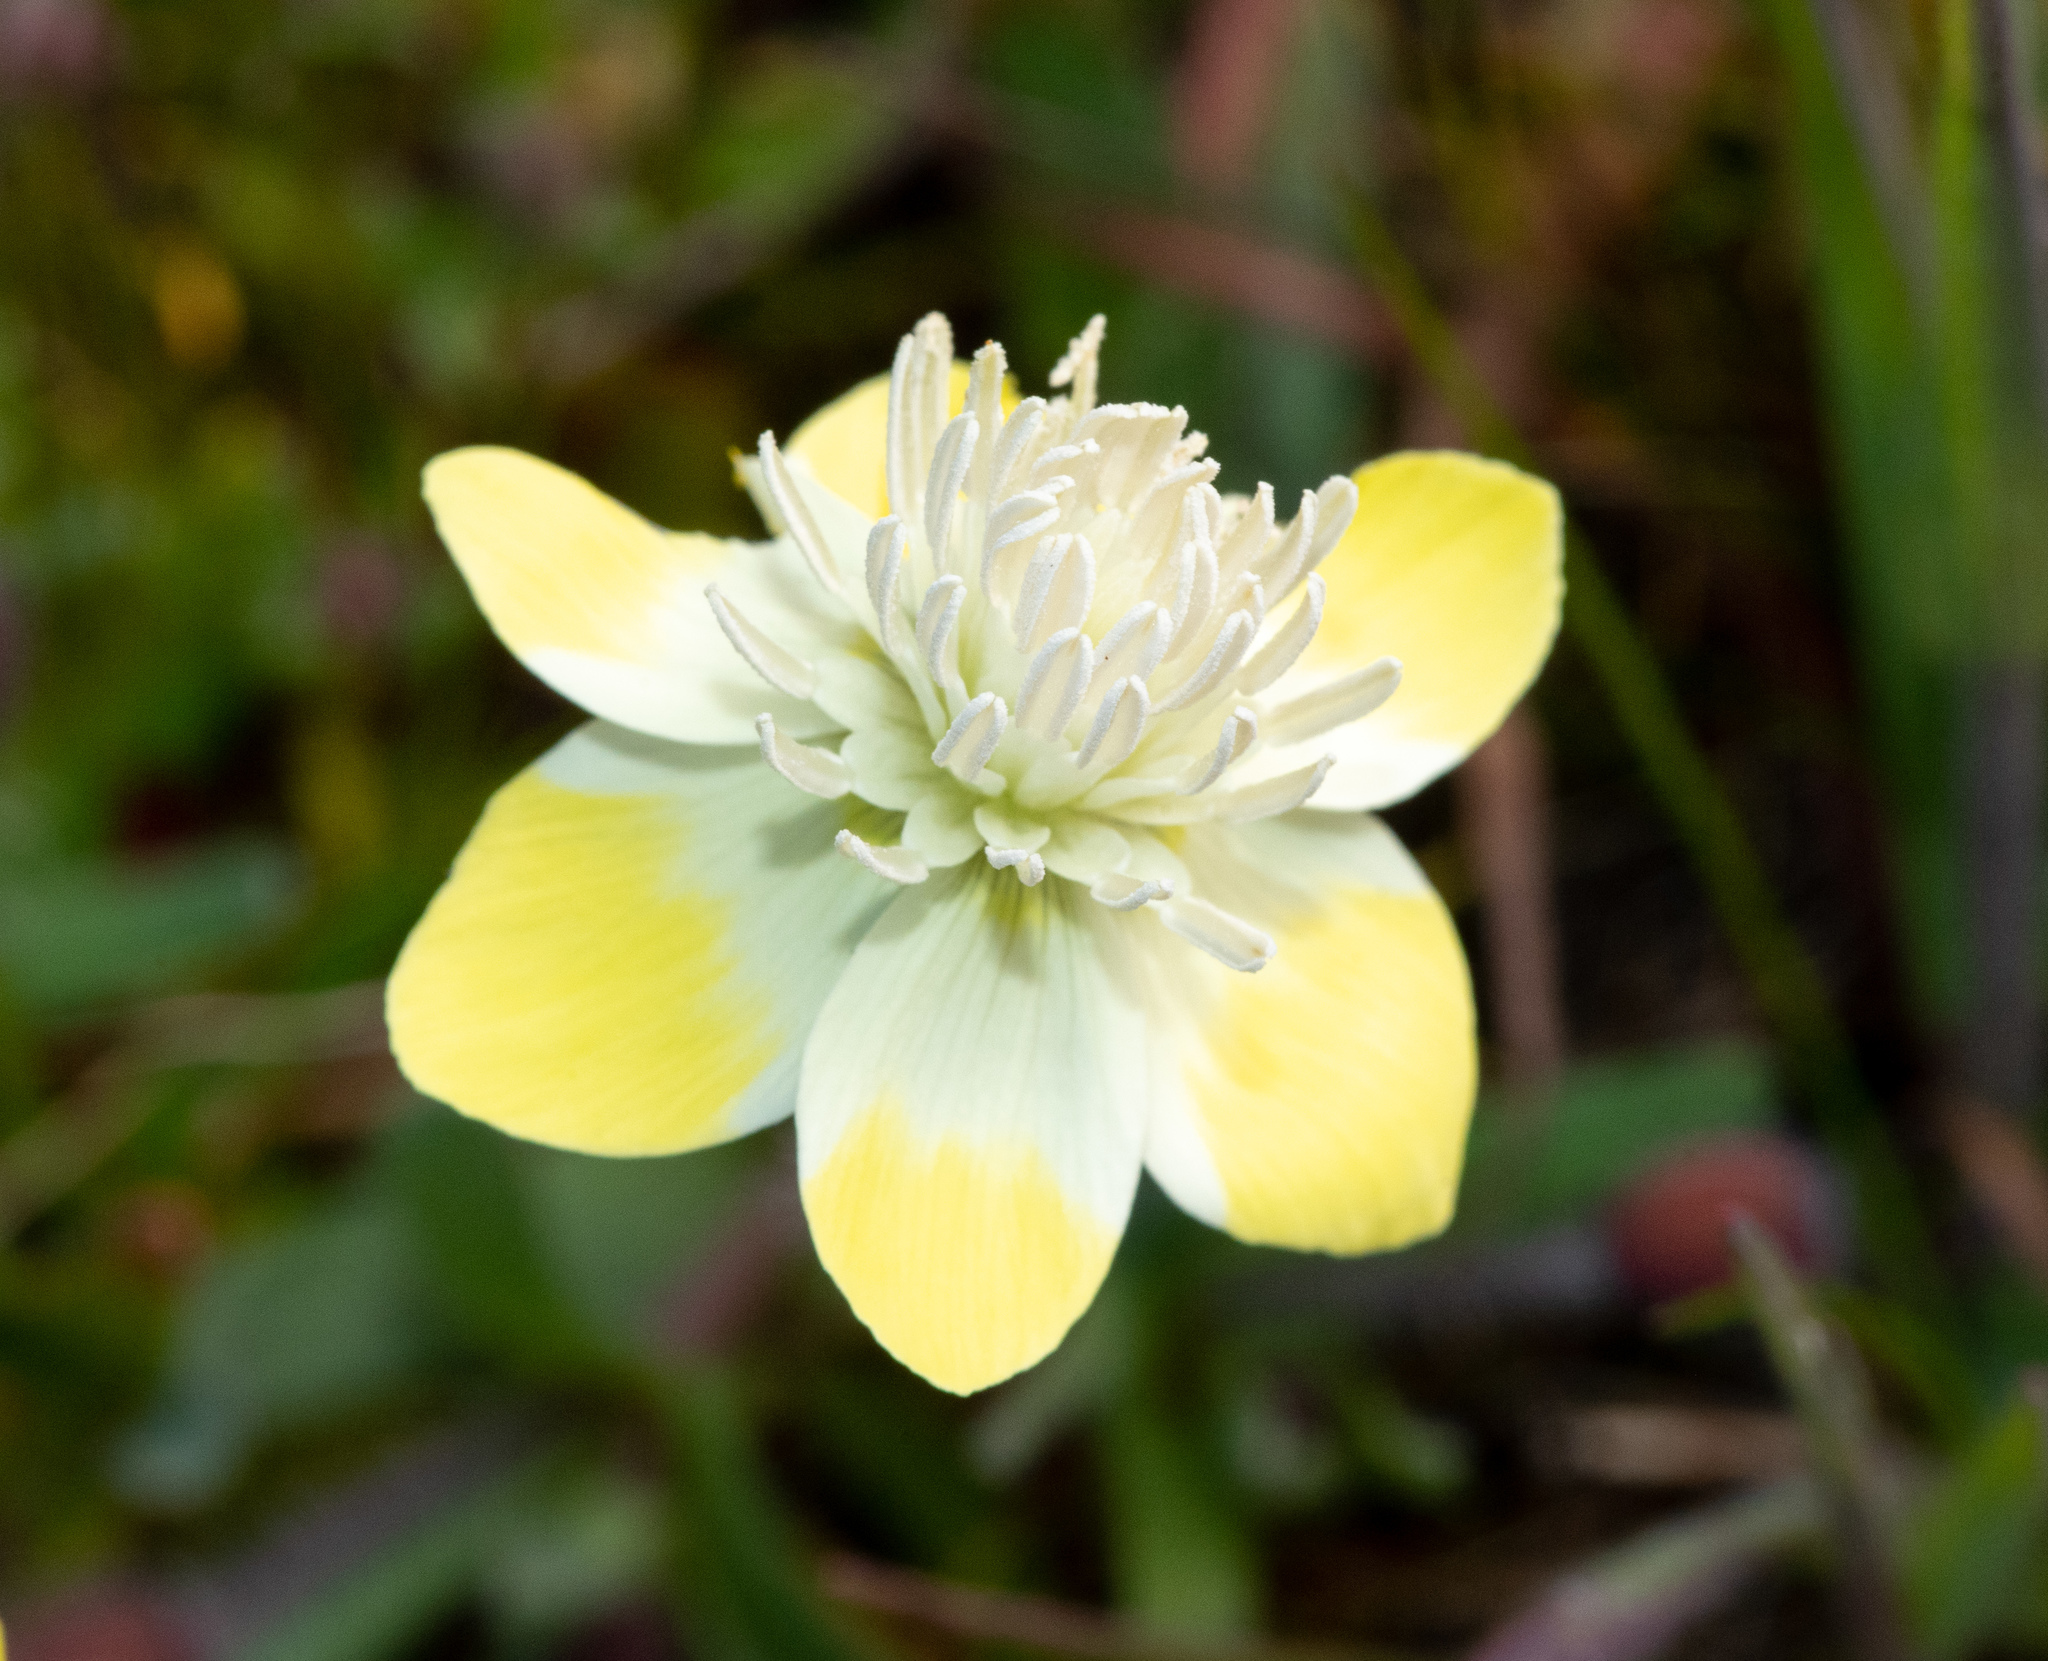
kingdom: Plantae
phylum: Tracheophyta
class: Magnoliopsida
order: Ranunculales
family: Papaveraceae
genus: Platystemon
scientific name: Platystemon californicus
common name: Cream-cups
